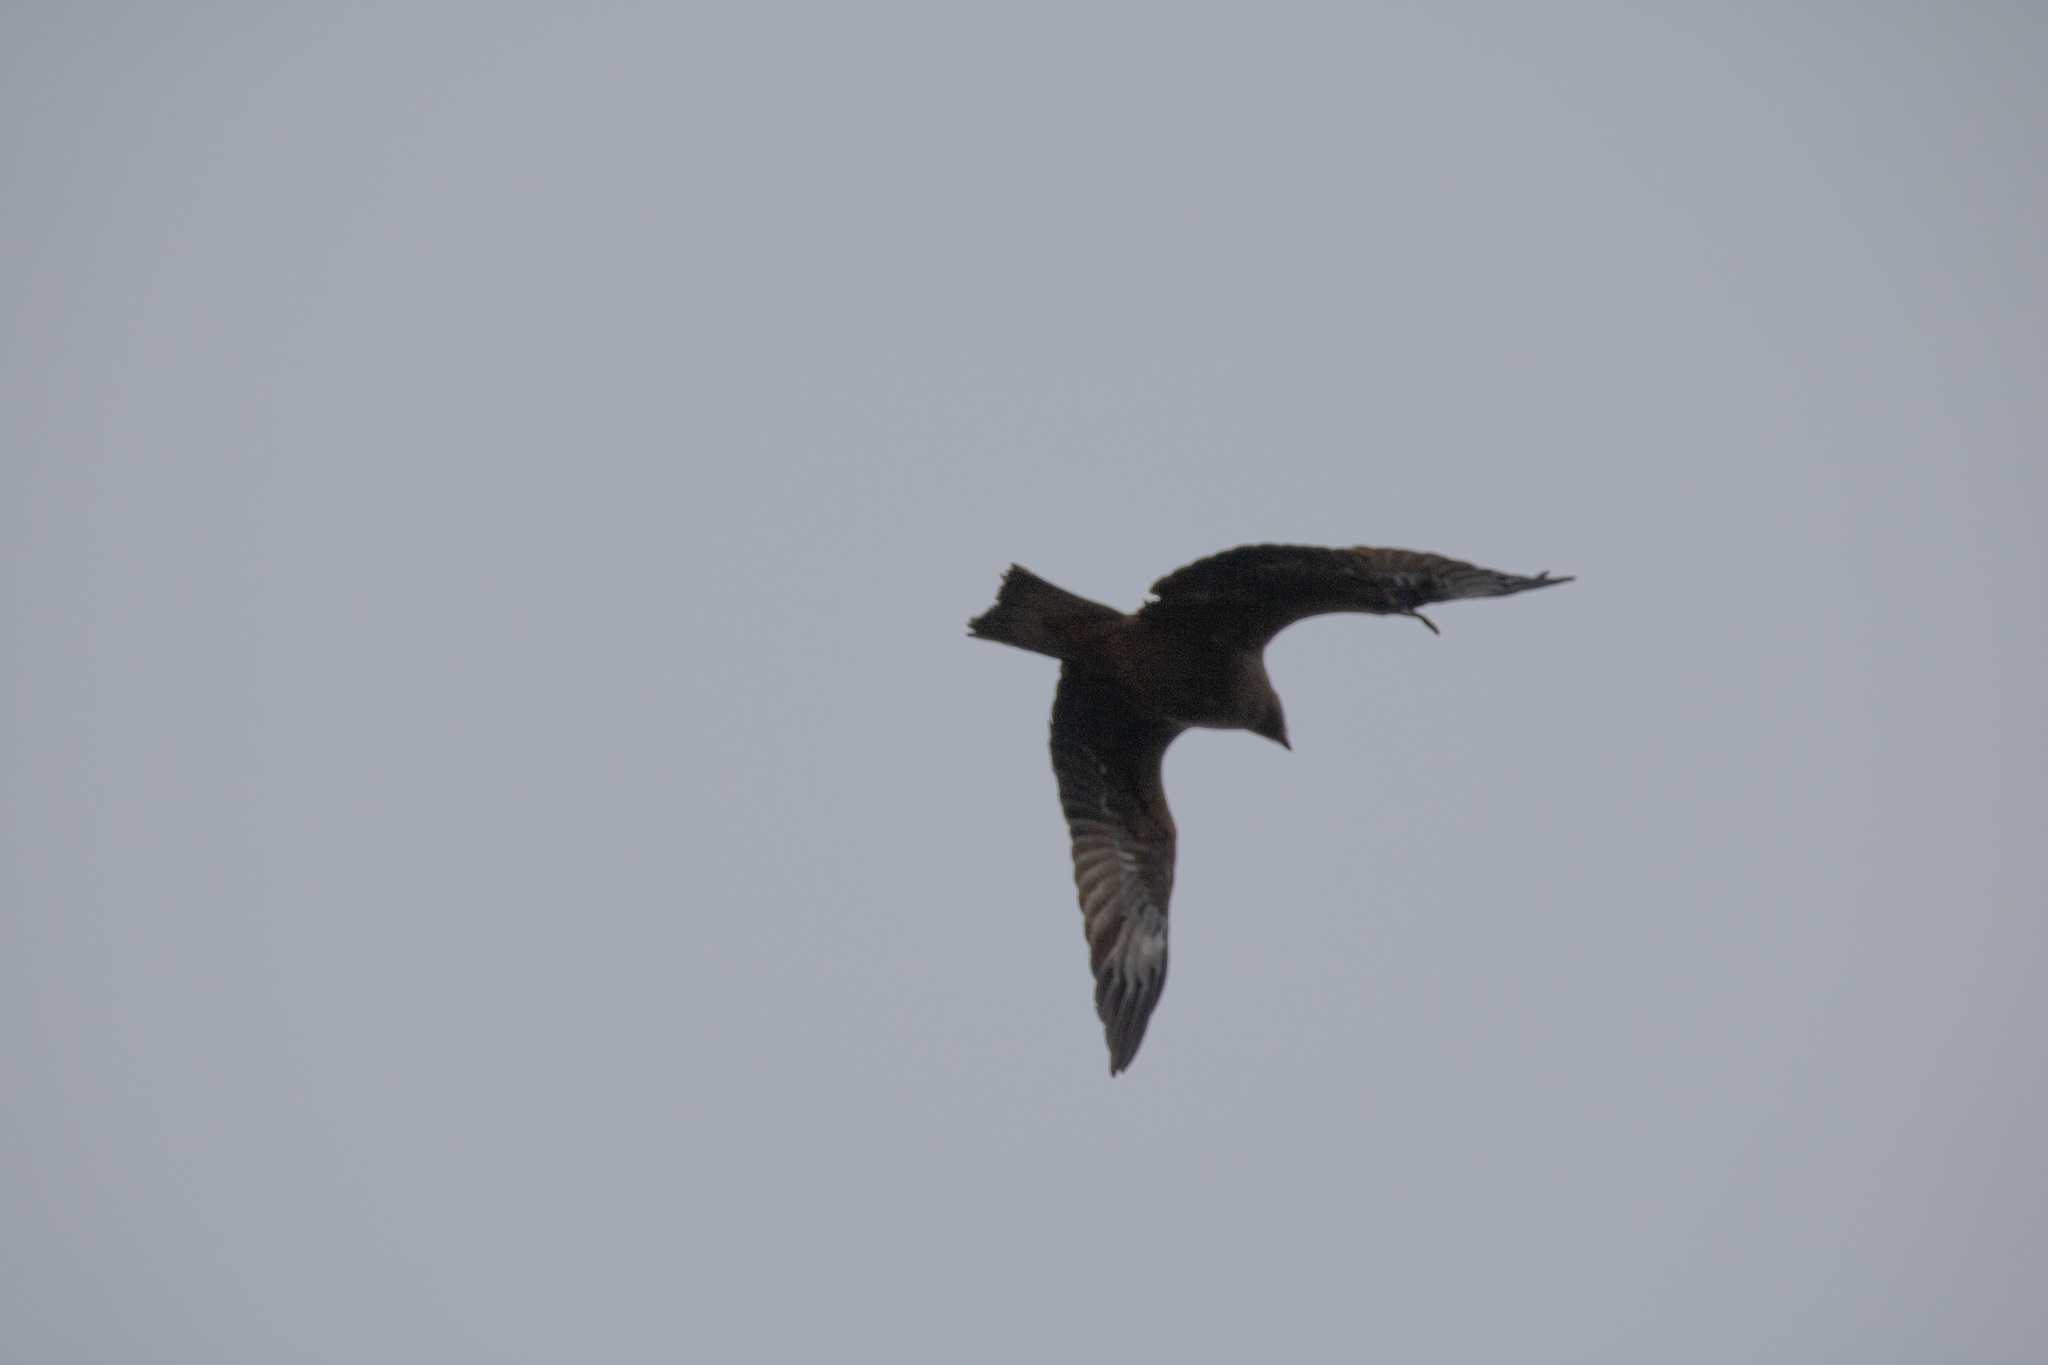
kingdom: Animalia
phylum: Chordata
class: Aves
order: Accipitriformes
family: Accipitridae
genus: Milvus
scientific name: Milvus migrans
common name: Black kite
